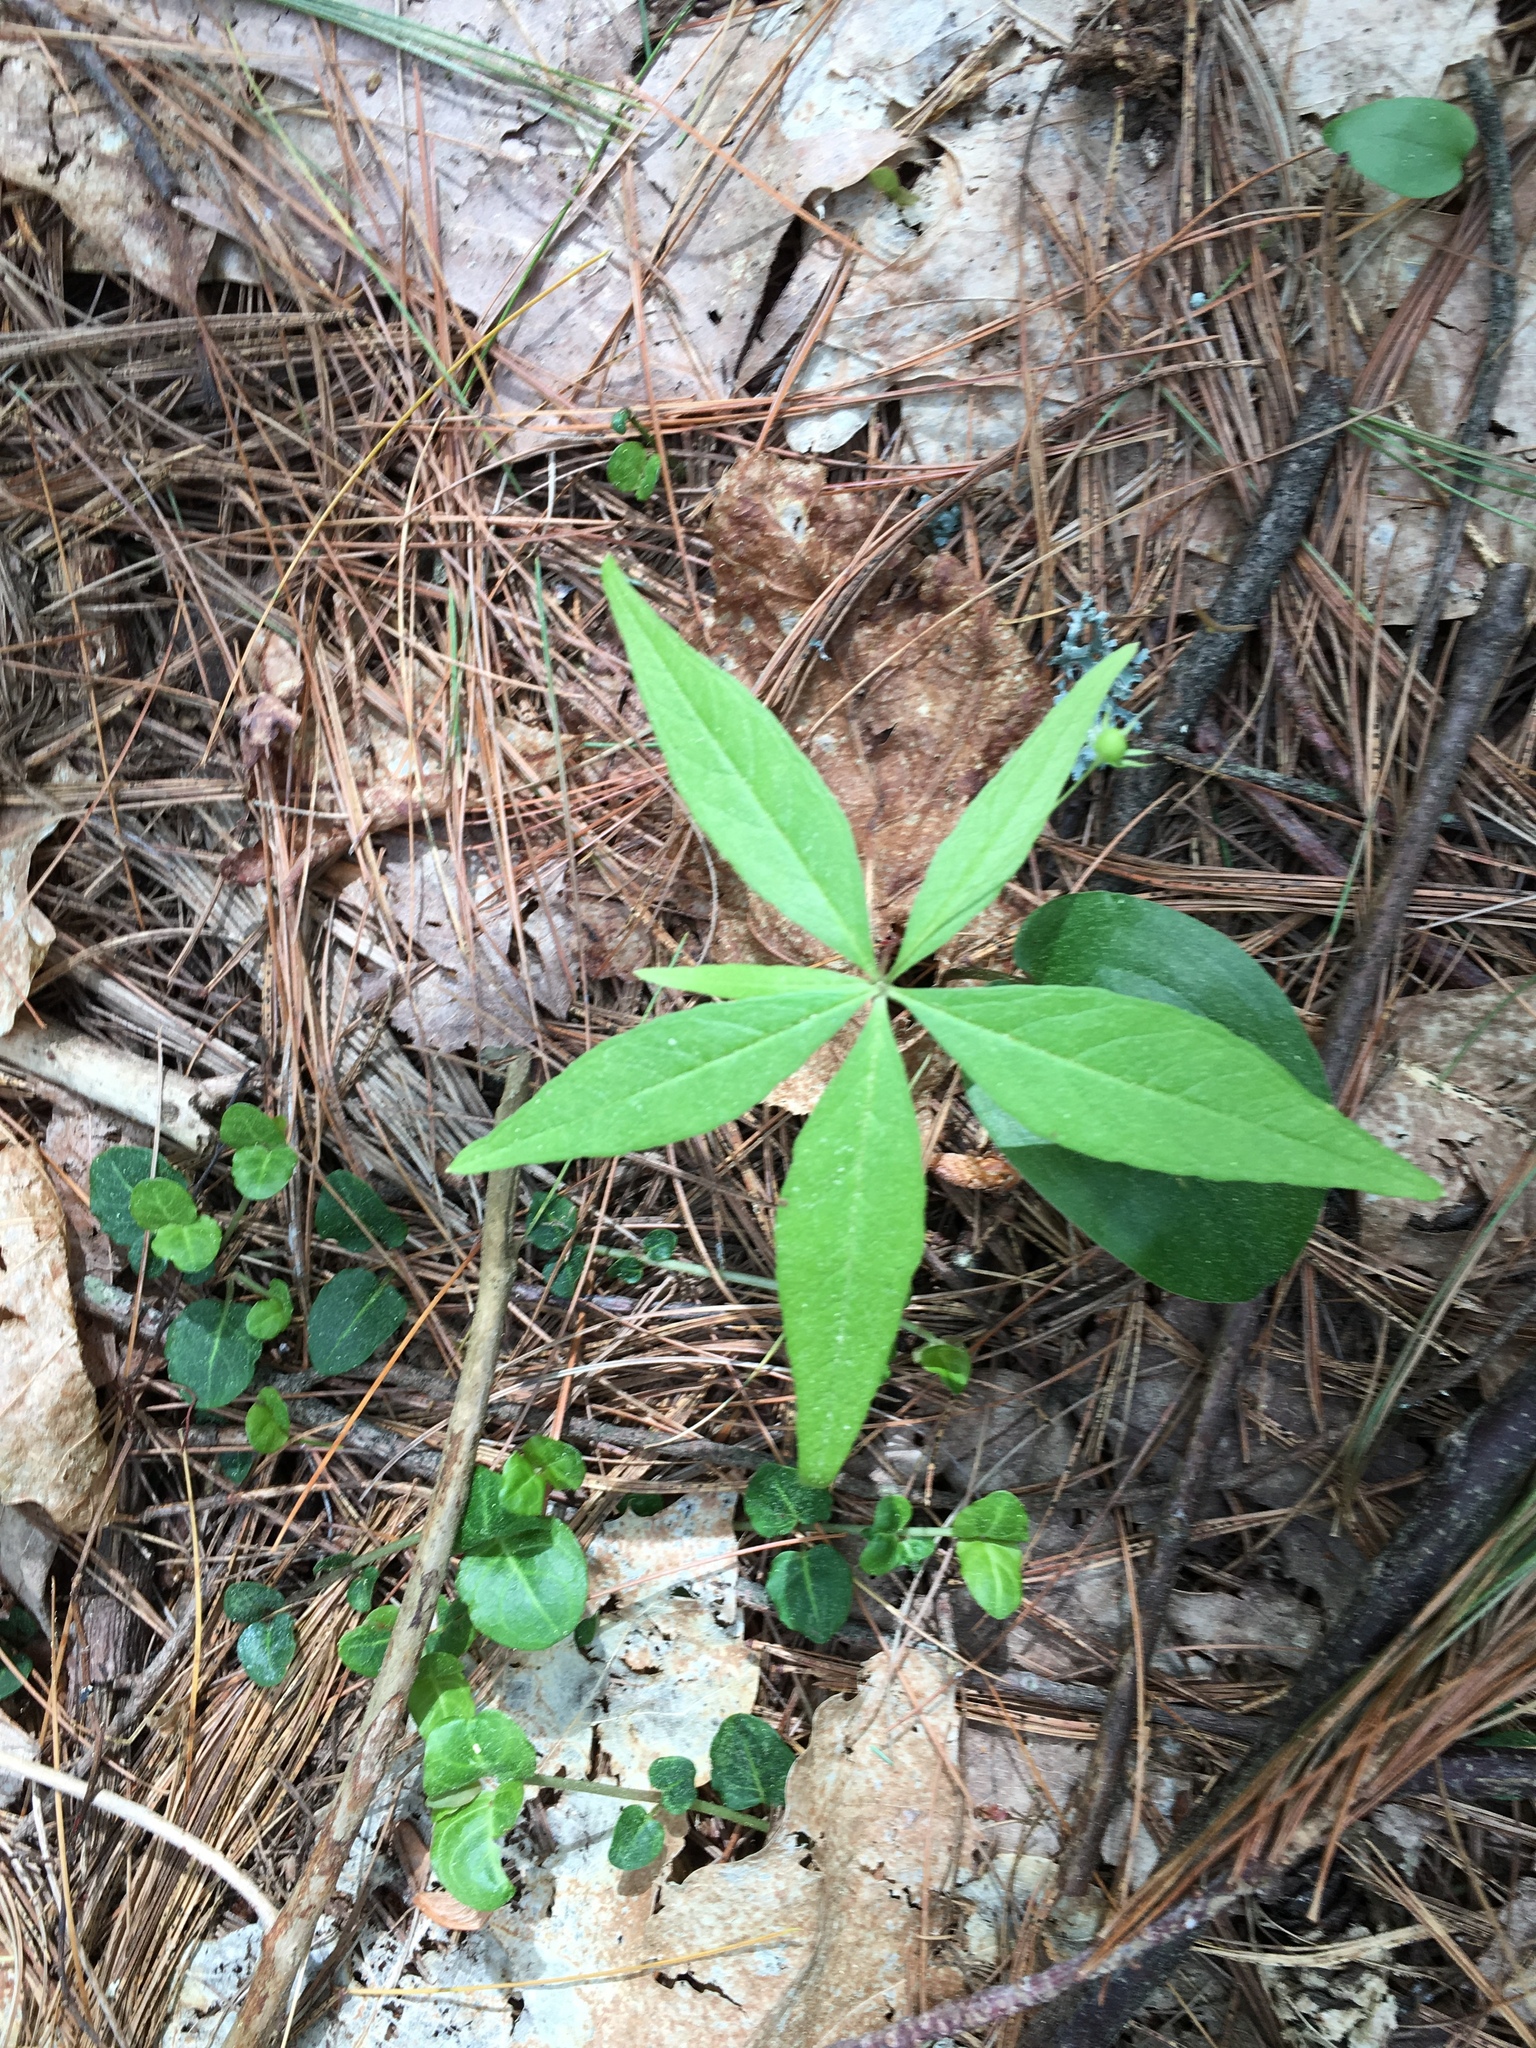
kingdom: Plantae
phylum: Tracheophyta
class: Magnoliopsida
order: Ericales
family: Primulaceae
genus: Lysimachia
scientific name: Lysimachia borealis
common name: American starflower
